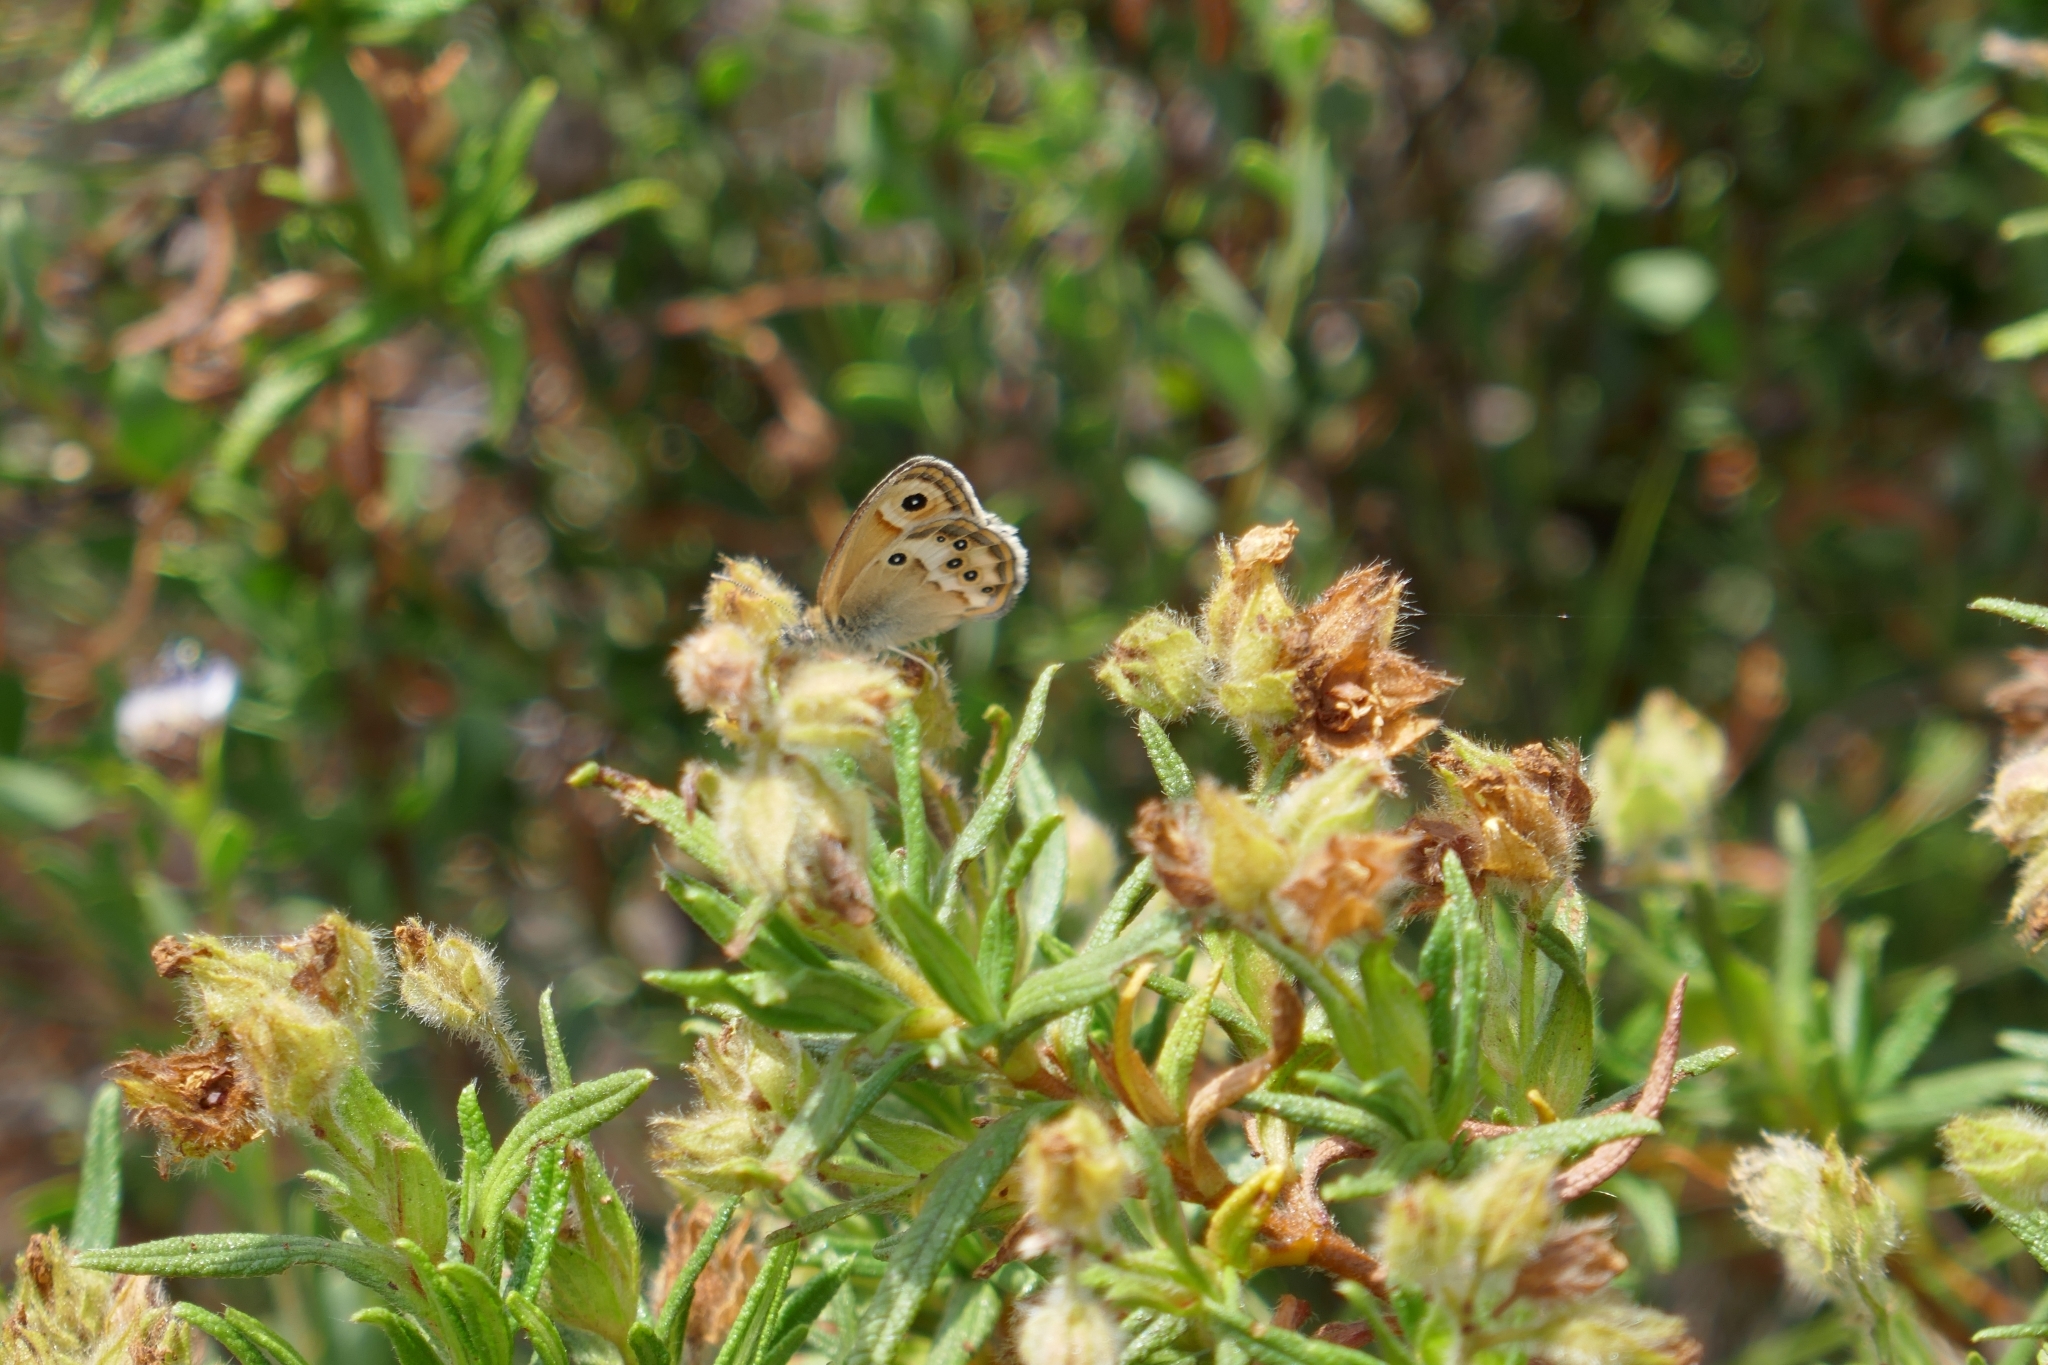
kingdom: Animalia
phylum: Arthropoda
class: Insecta
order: Lepidoptera
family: Nymphalidae
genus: Coenonympha
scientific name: Coenonympha dorus
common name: Dusky heath
